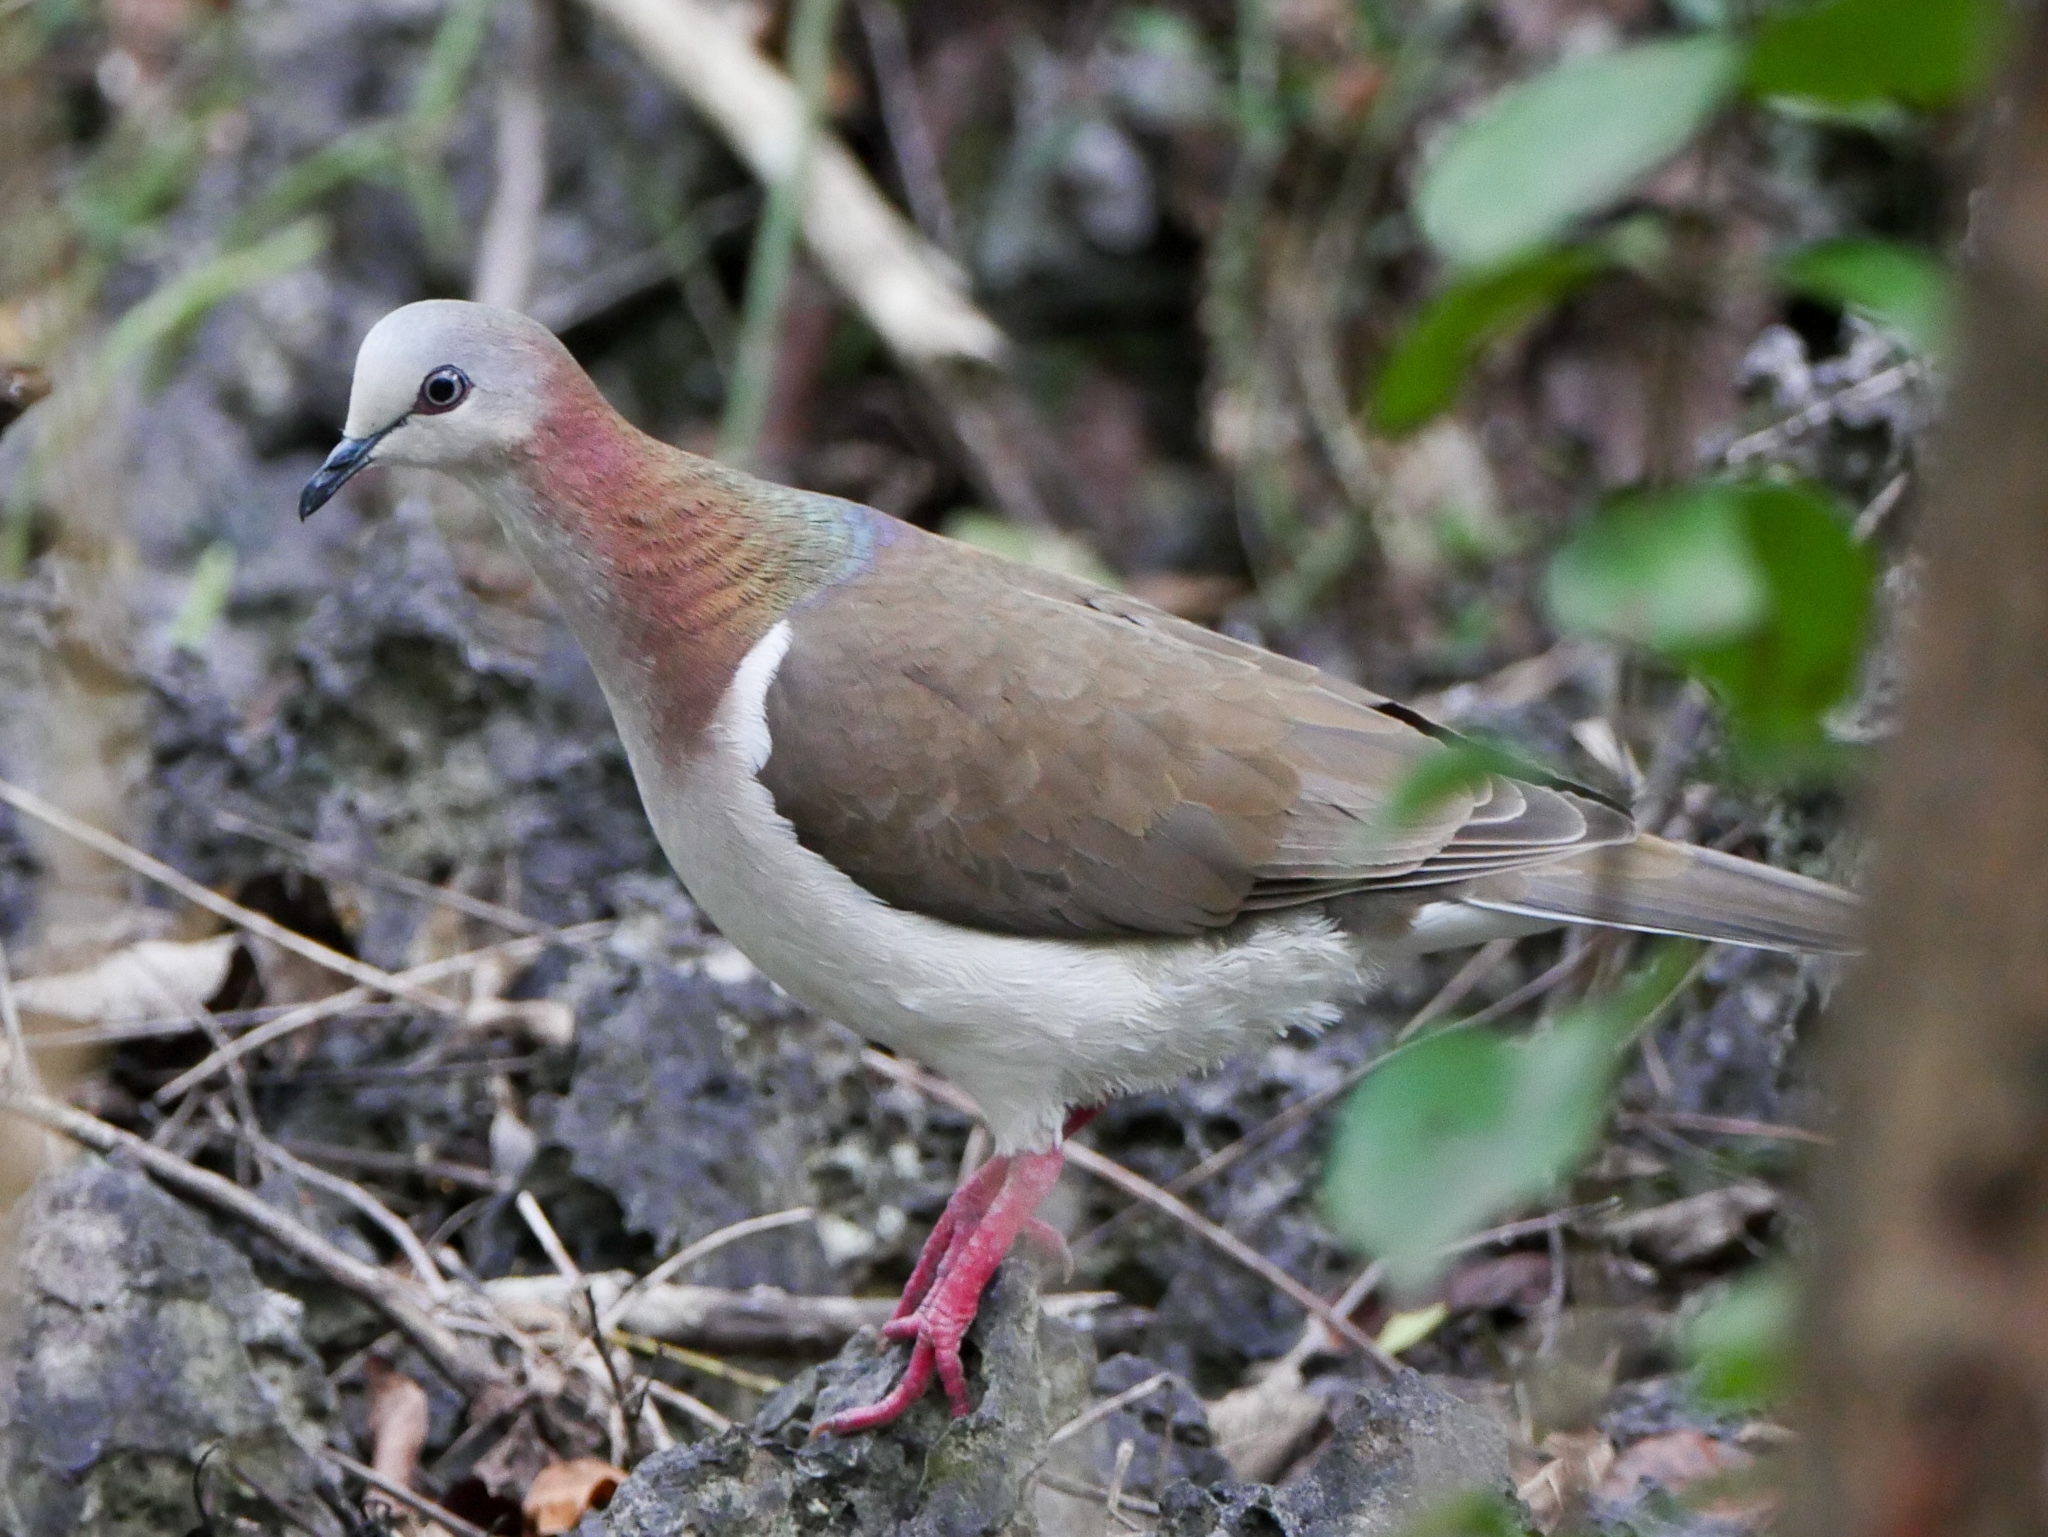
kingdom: Animalia
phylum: Chordata
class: Aves
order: Columbiformes
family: Columbidae
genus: Leptotila
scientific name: Leptotila jamaicensis
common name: Caribbean dove
